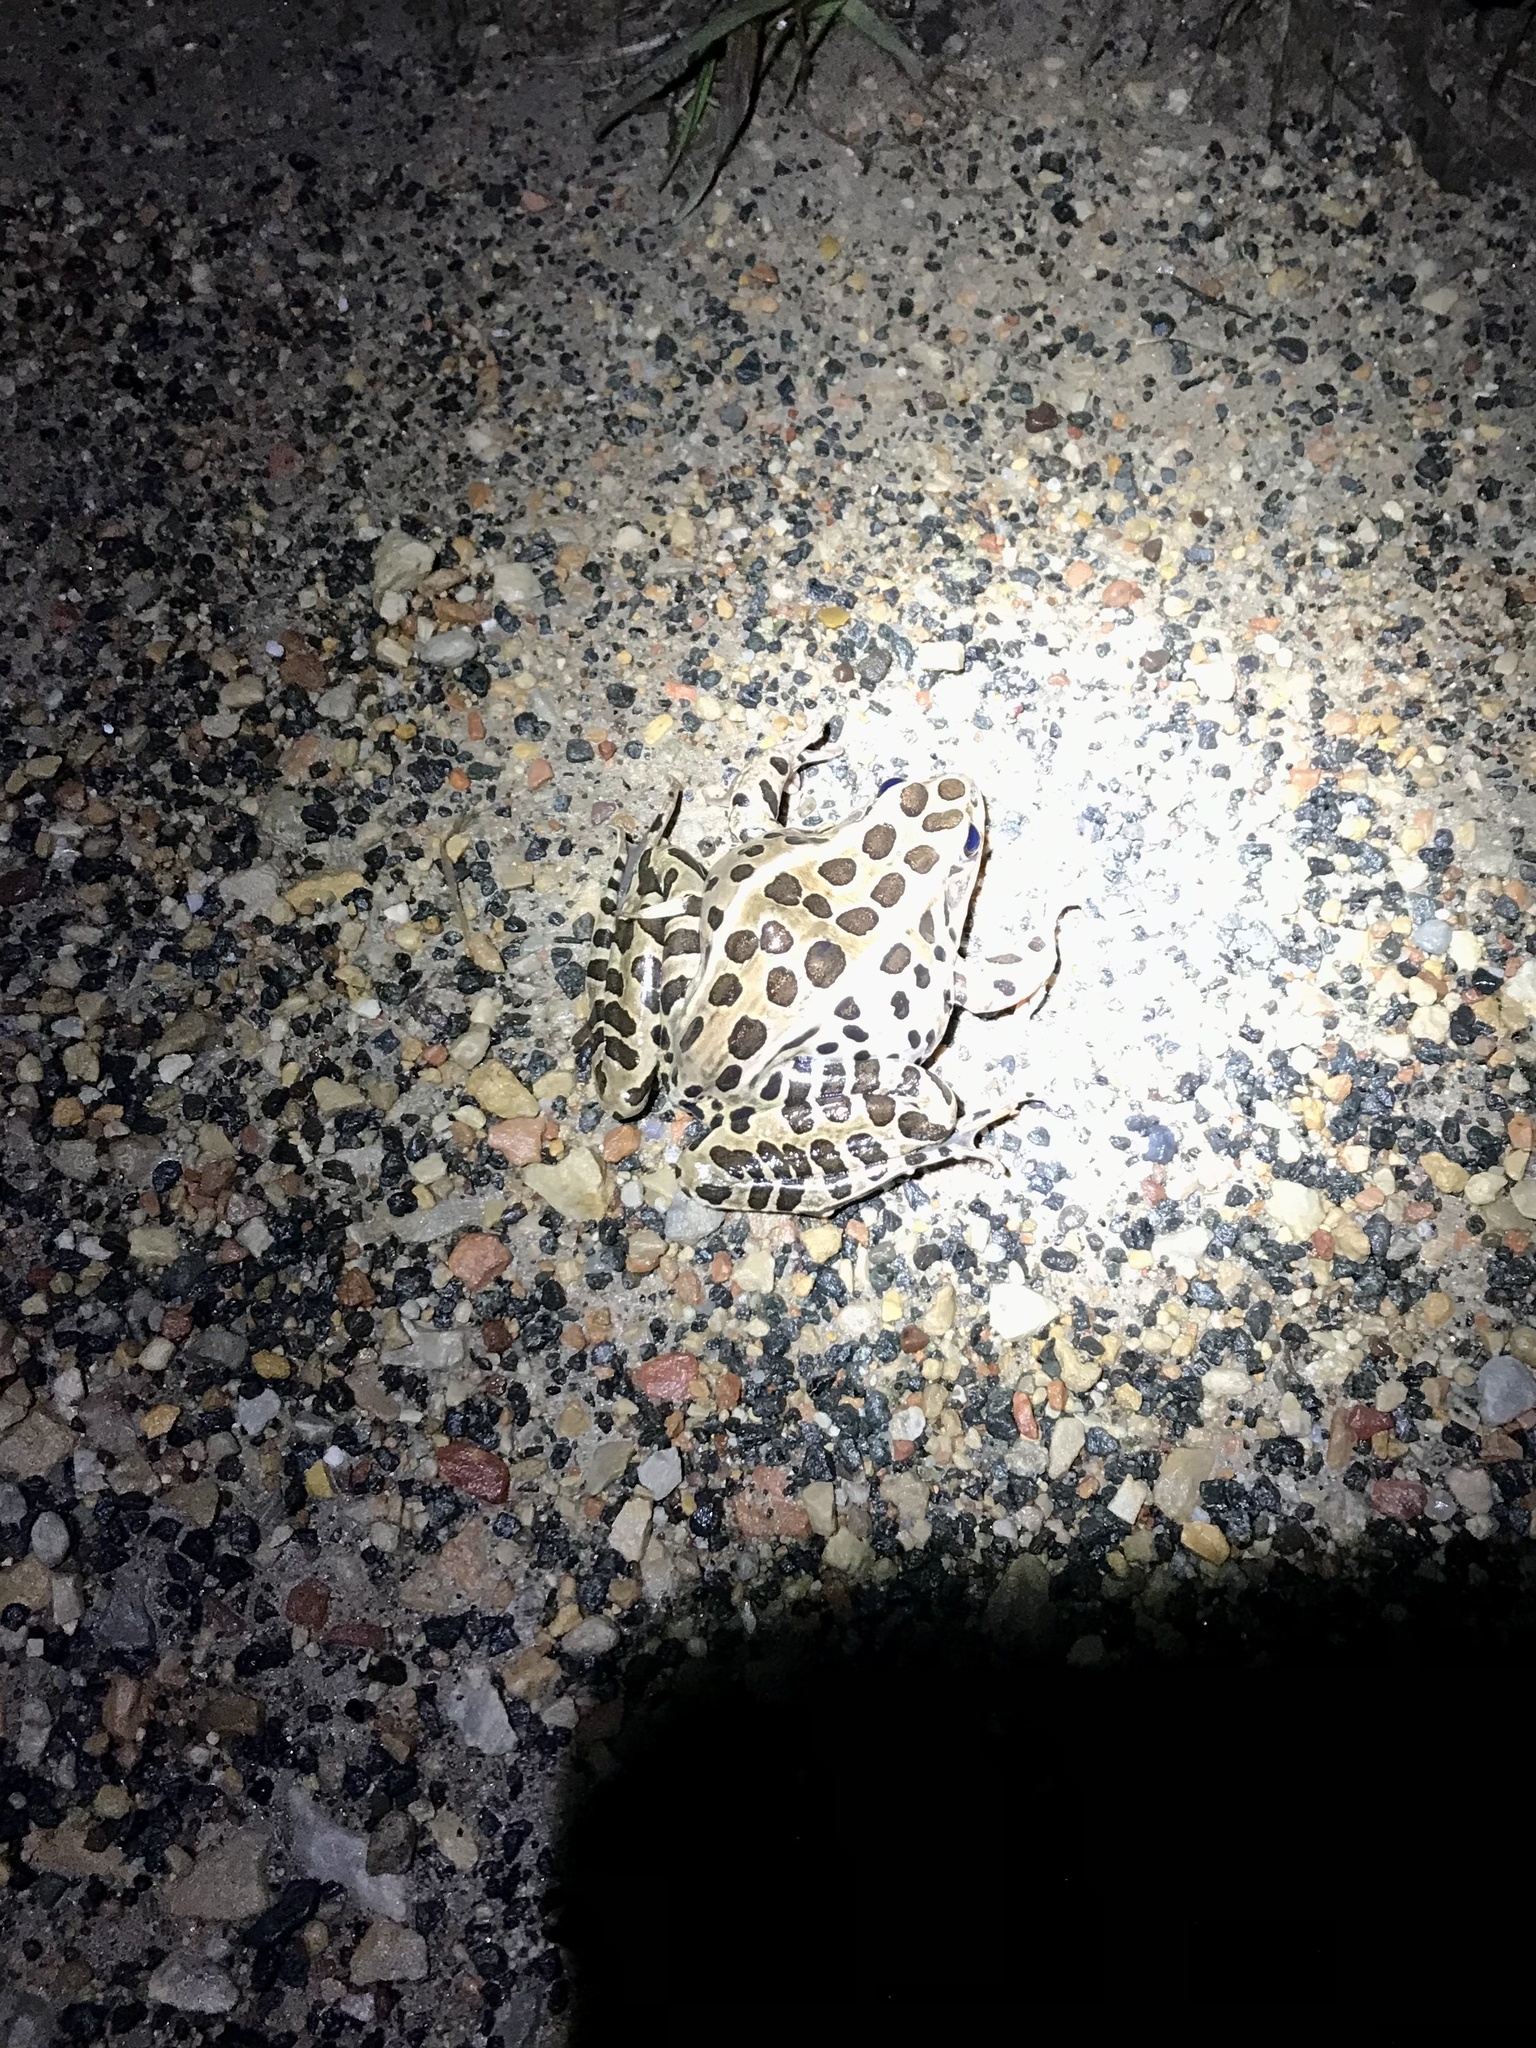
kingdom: Animalia
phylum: Chordata
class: Amphibia
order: Anura
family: Ranidae
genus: Lithobates
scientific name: Lithobates pipiens
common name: Northern leopard frog
